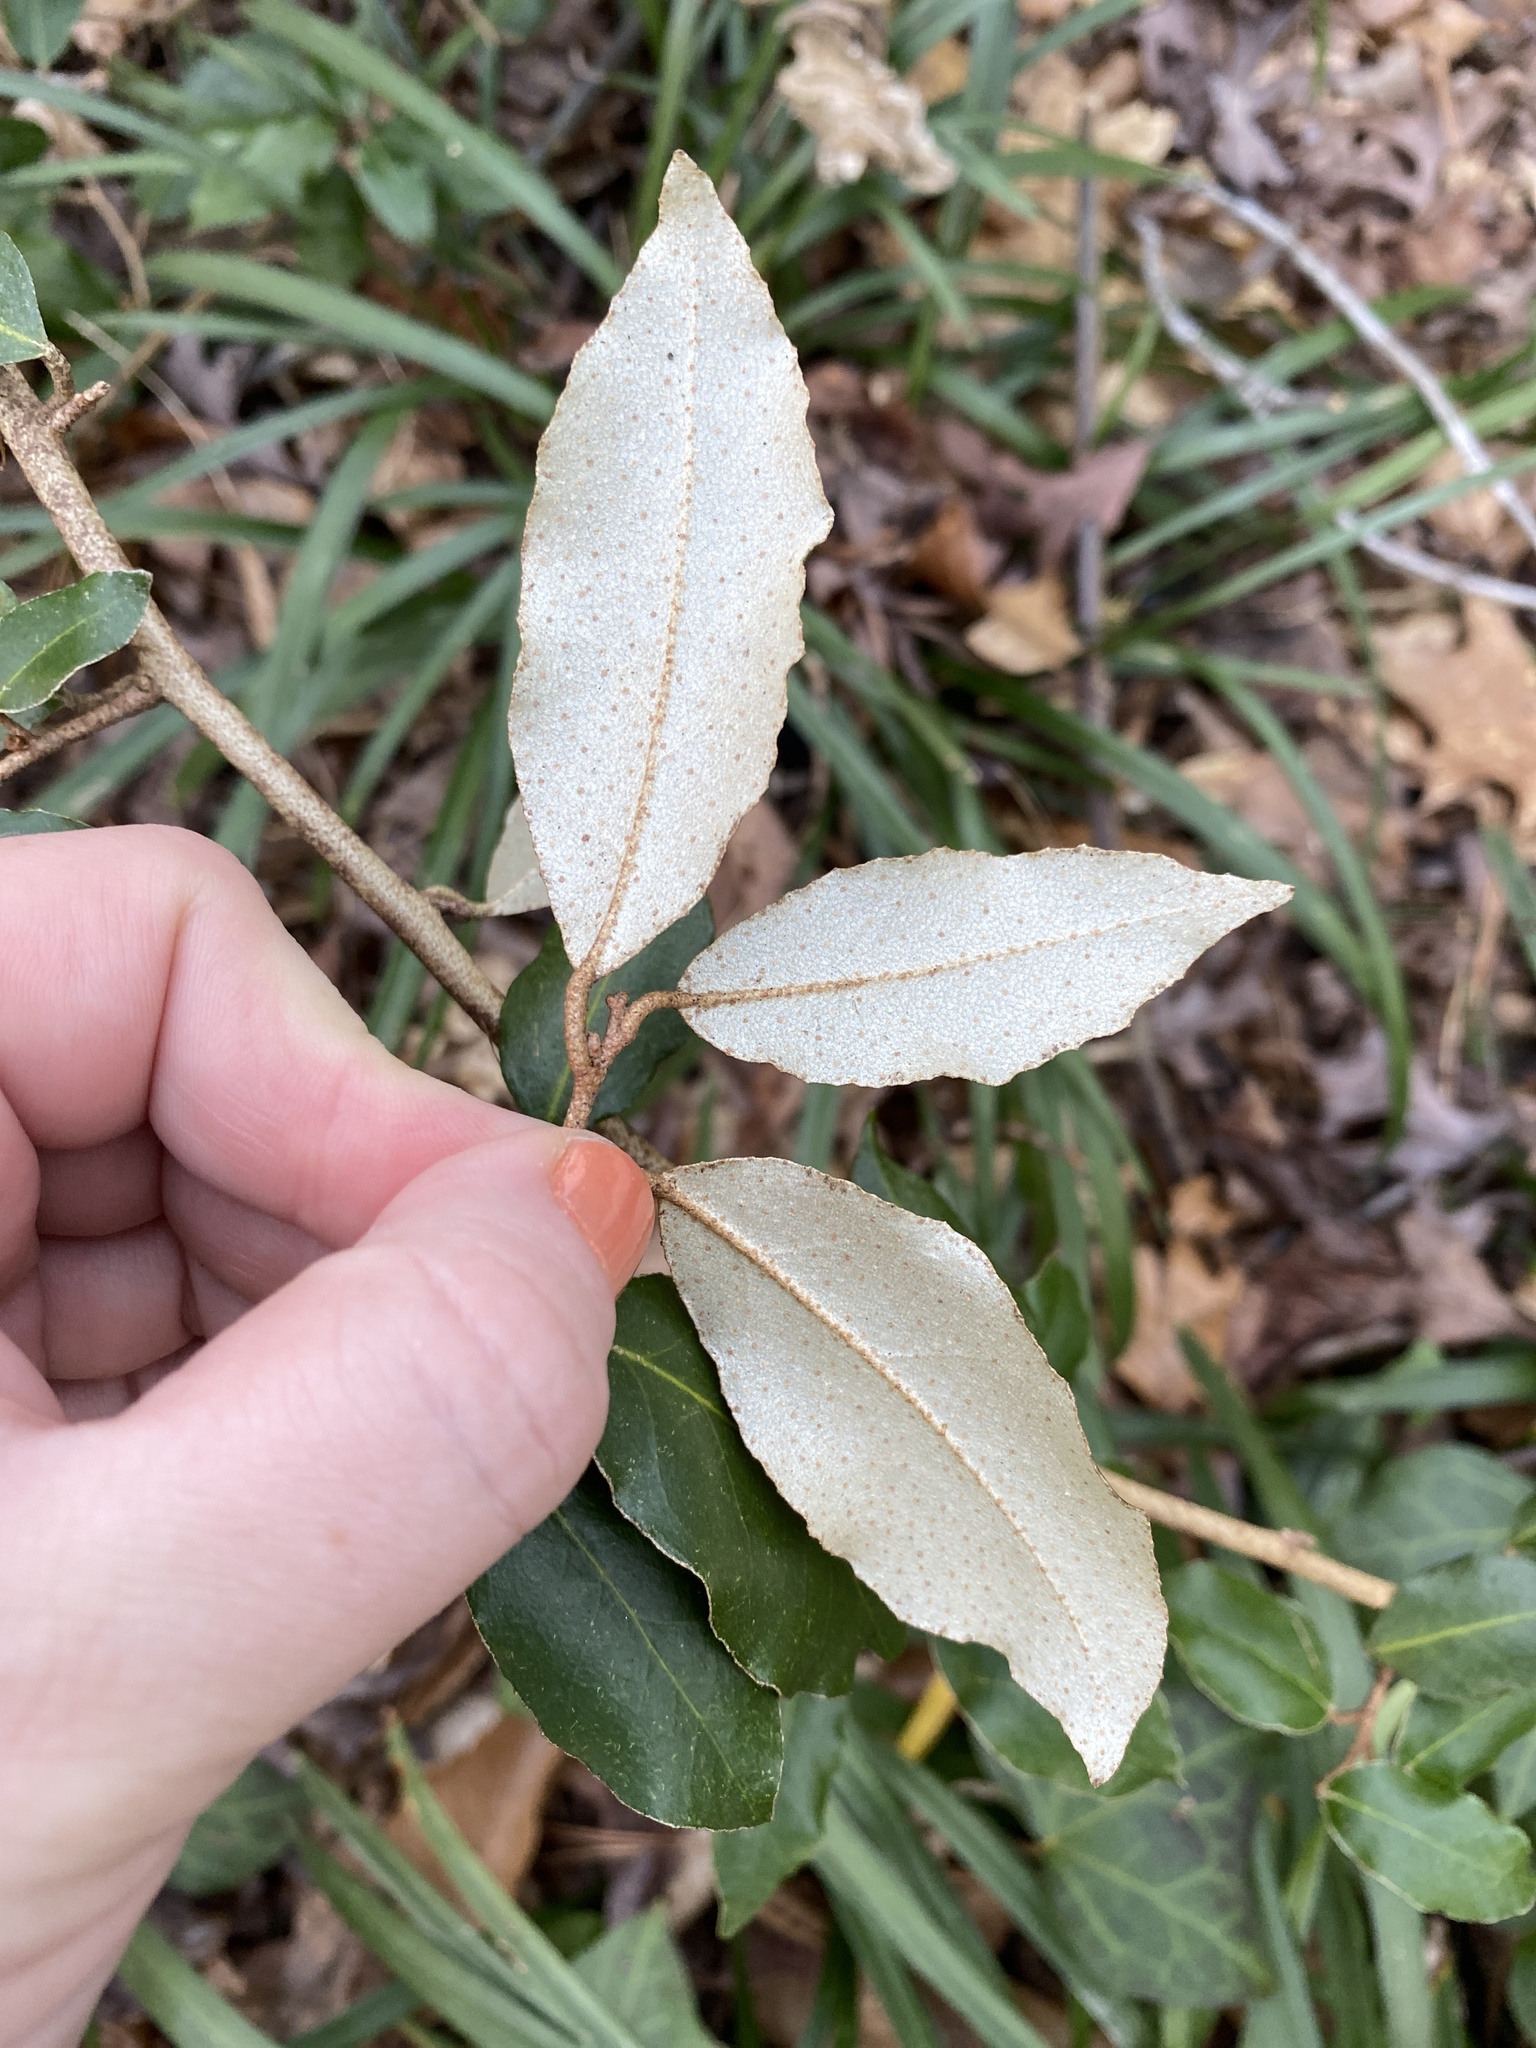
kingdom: Plantae
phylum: Tracheophyta
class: Magnoliopsida
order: Rosales
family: Elaeagnaceae
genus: Elaeagnus
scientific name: Elaeagnus pungens
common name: Spiny oleaster
